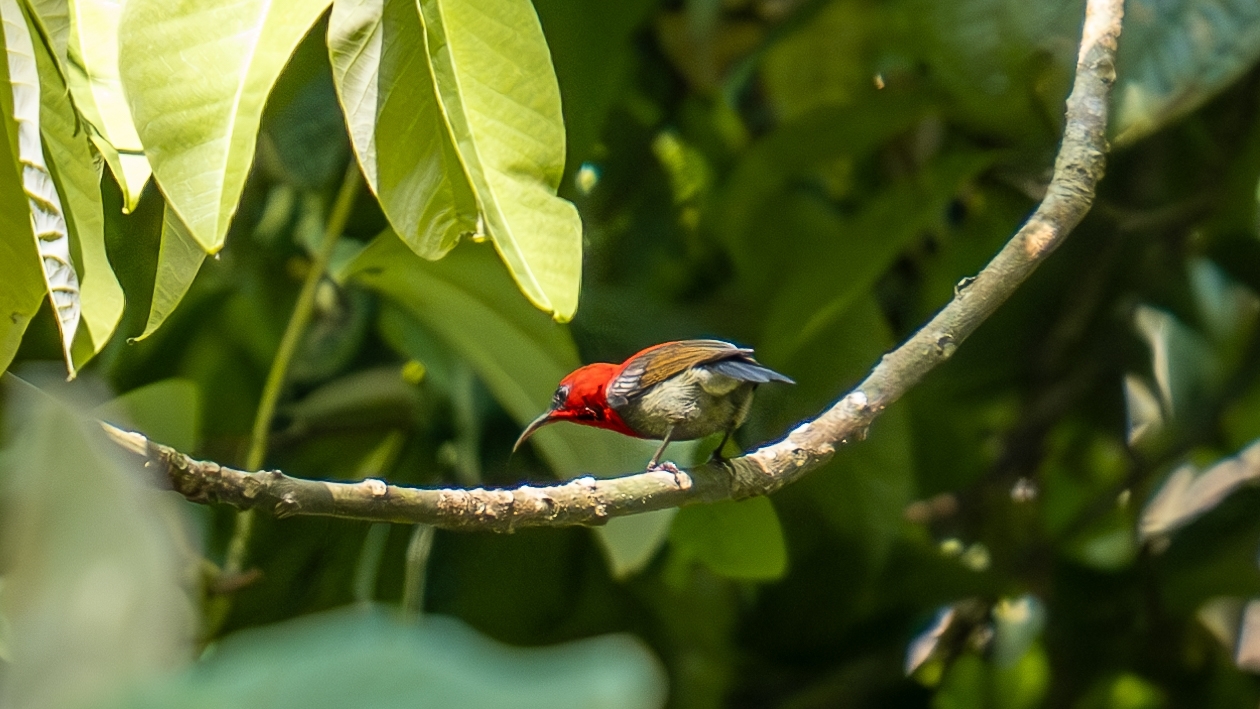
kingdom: Animalia
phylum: Chordata
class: Aves
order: Passeriformes
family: Nectariniidae
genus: Aethopyga
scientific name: Aethopyga siparaja
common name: Crimson sunbird
